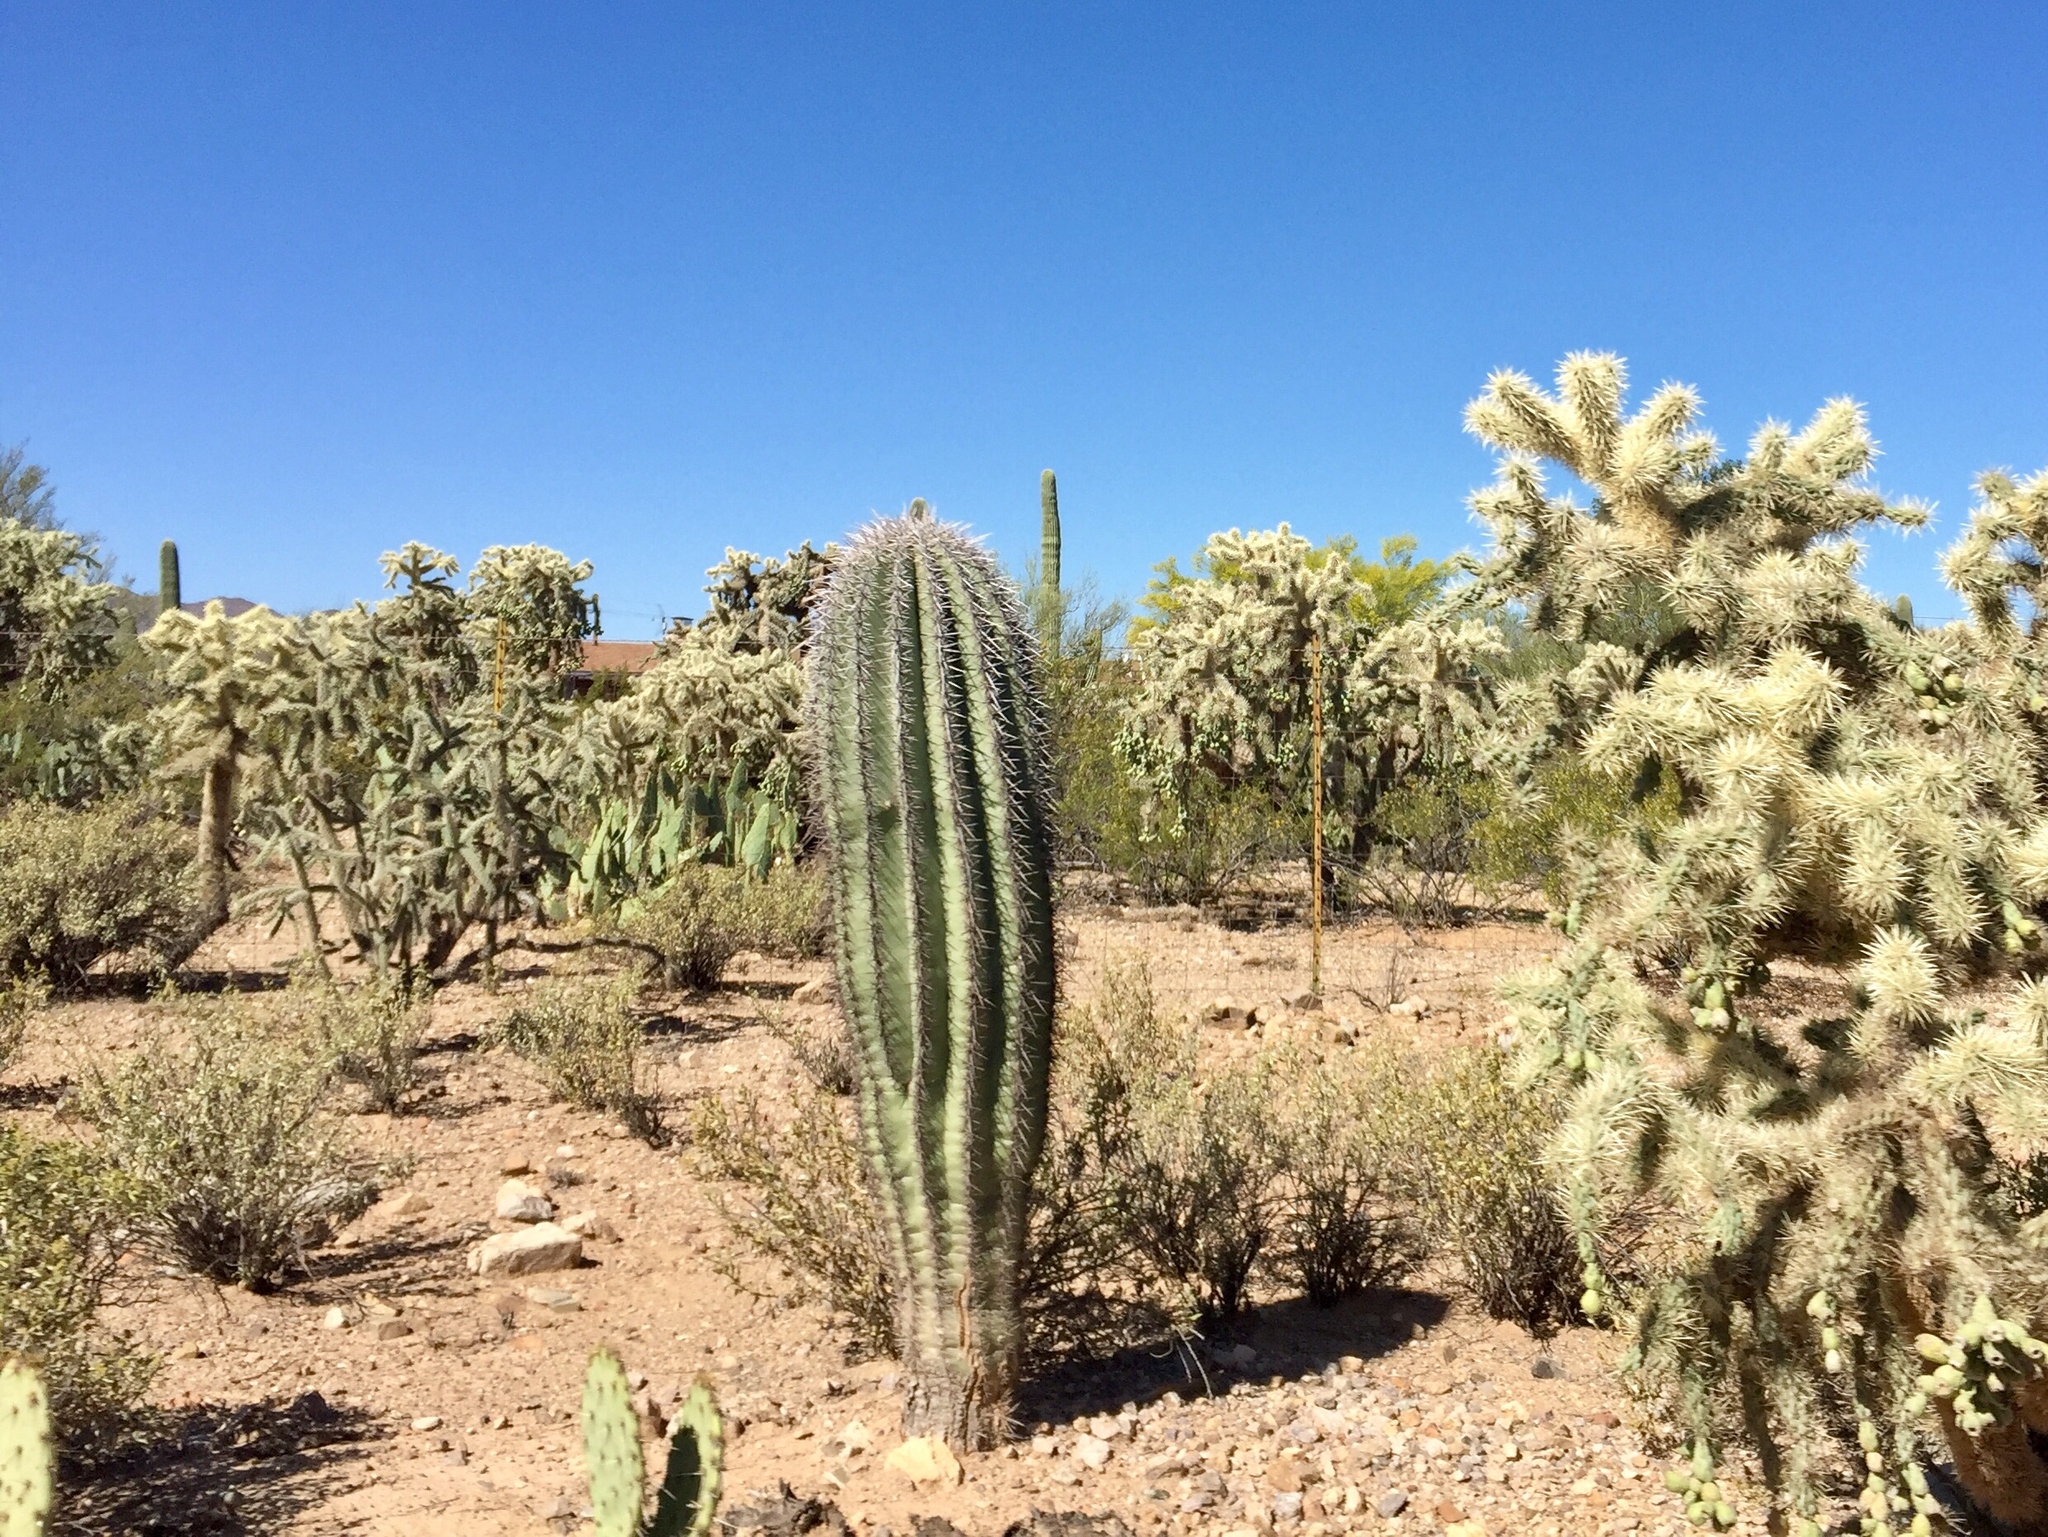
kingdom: Plantae
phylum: Tracheophyta
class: Magnoliopsida
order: Caryophyllales
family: Cactaceae
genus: Carnegiea
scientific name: Carnegiea gigantea
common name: Saguaro
